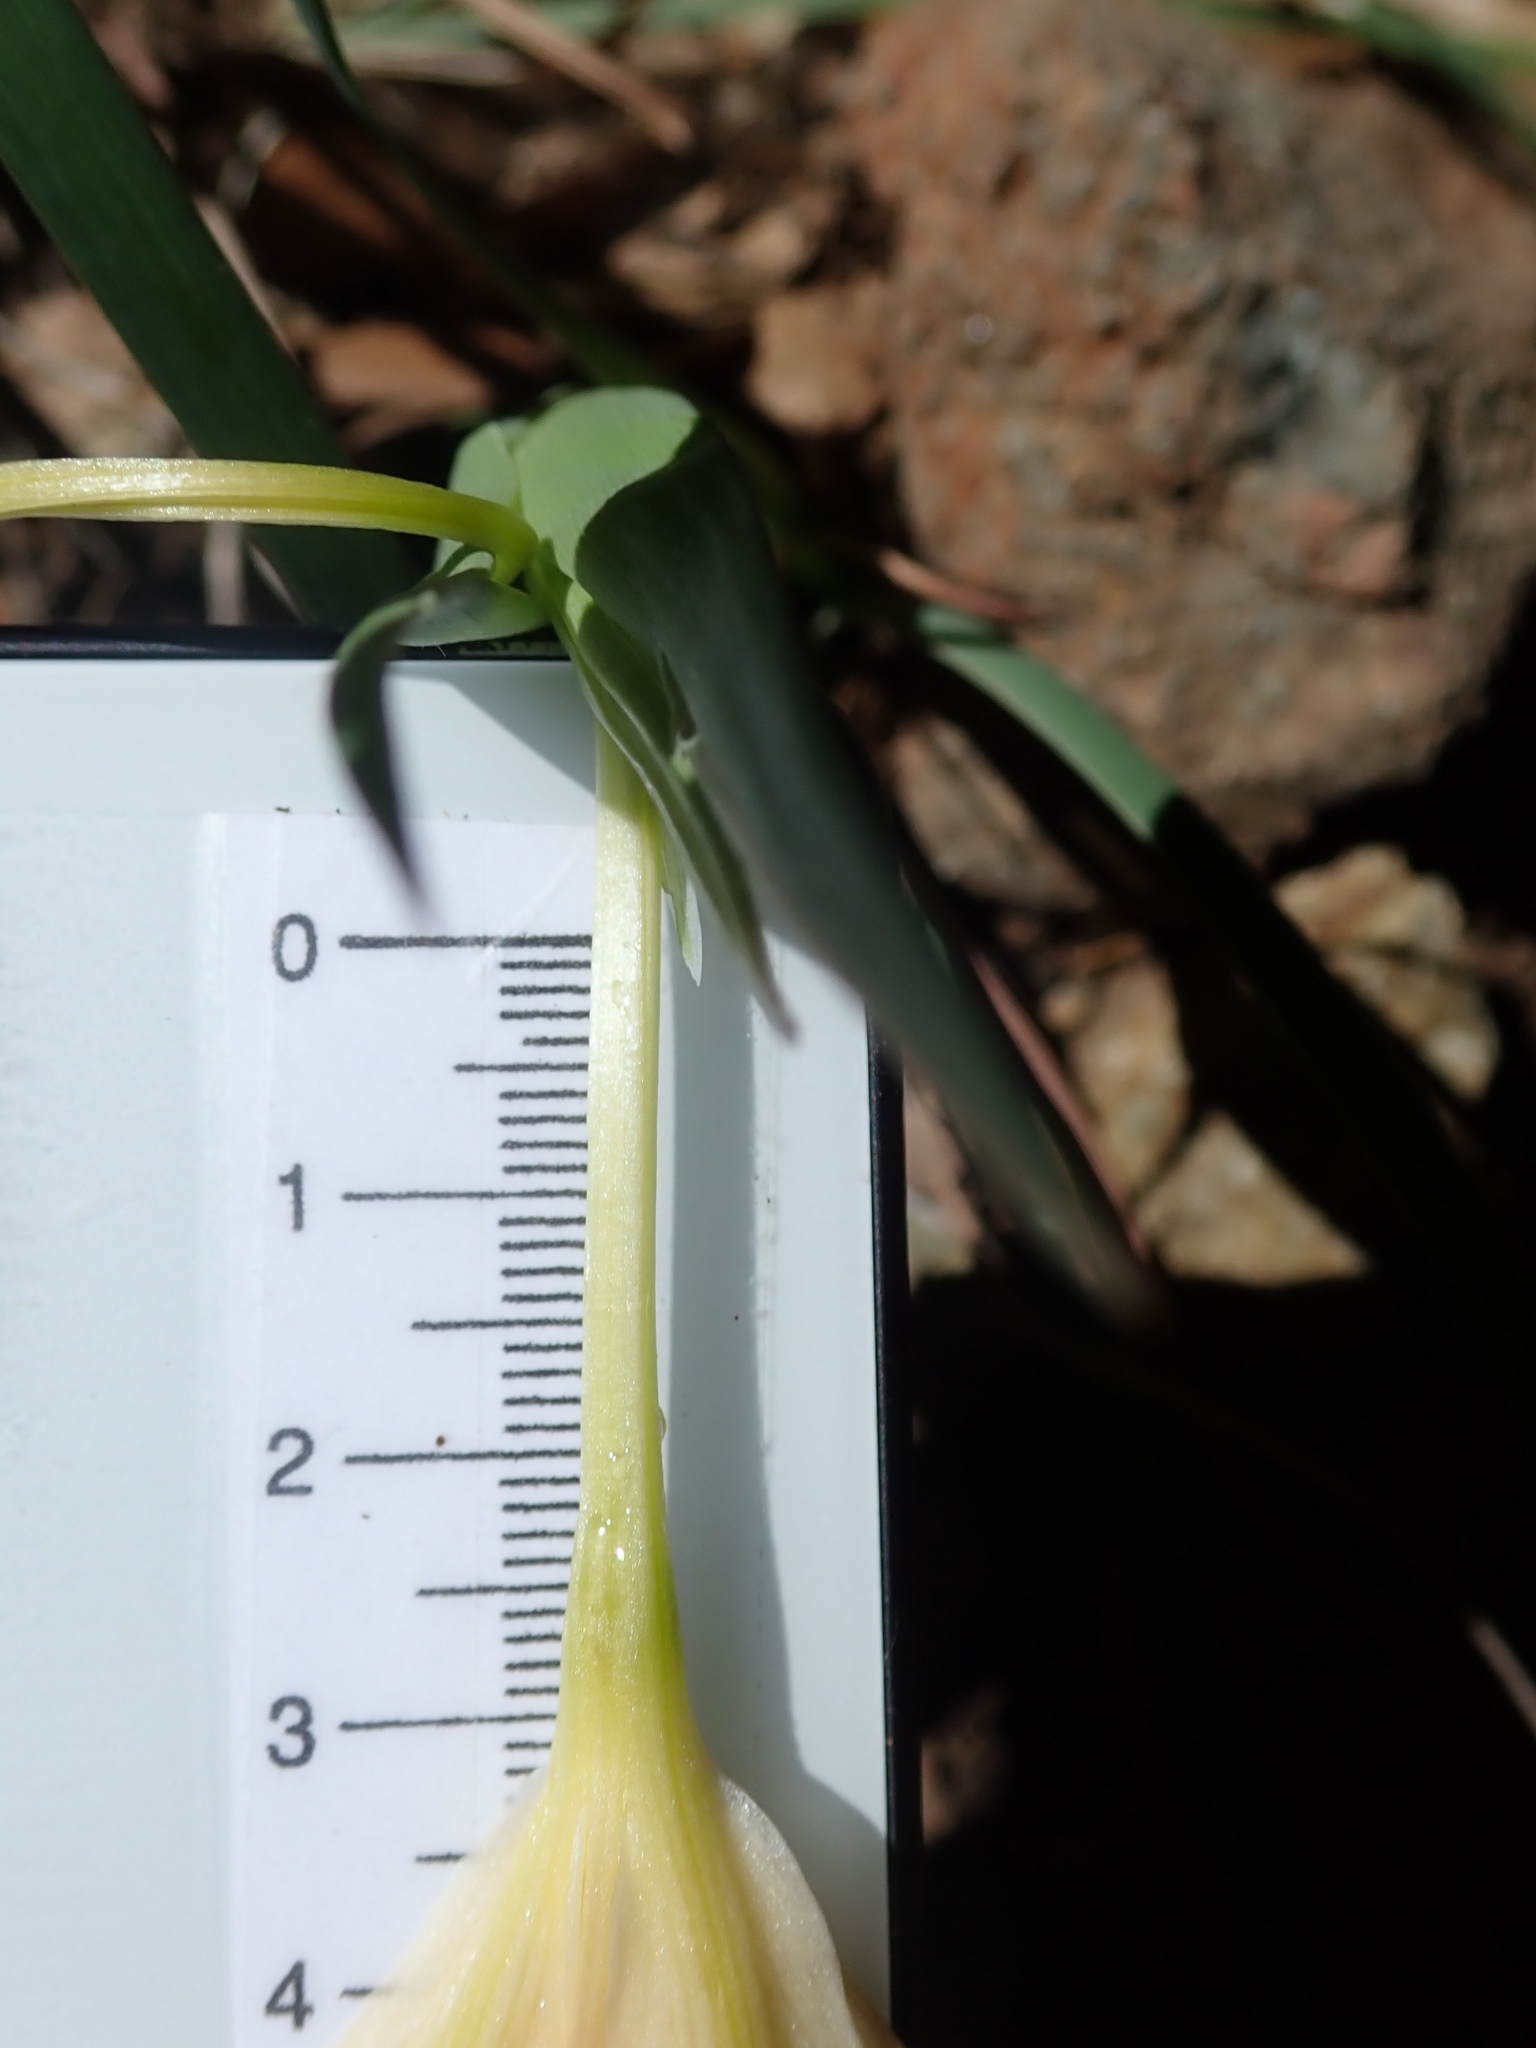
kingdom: Plantae
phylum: Tracheophyta
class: Liliopsida
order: Asparagales
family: Iridaceae
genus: Iris
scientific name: Iris fernaldii
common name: Fernald's iris
